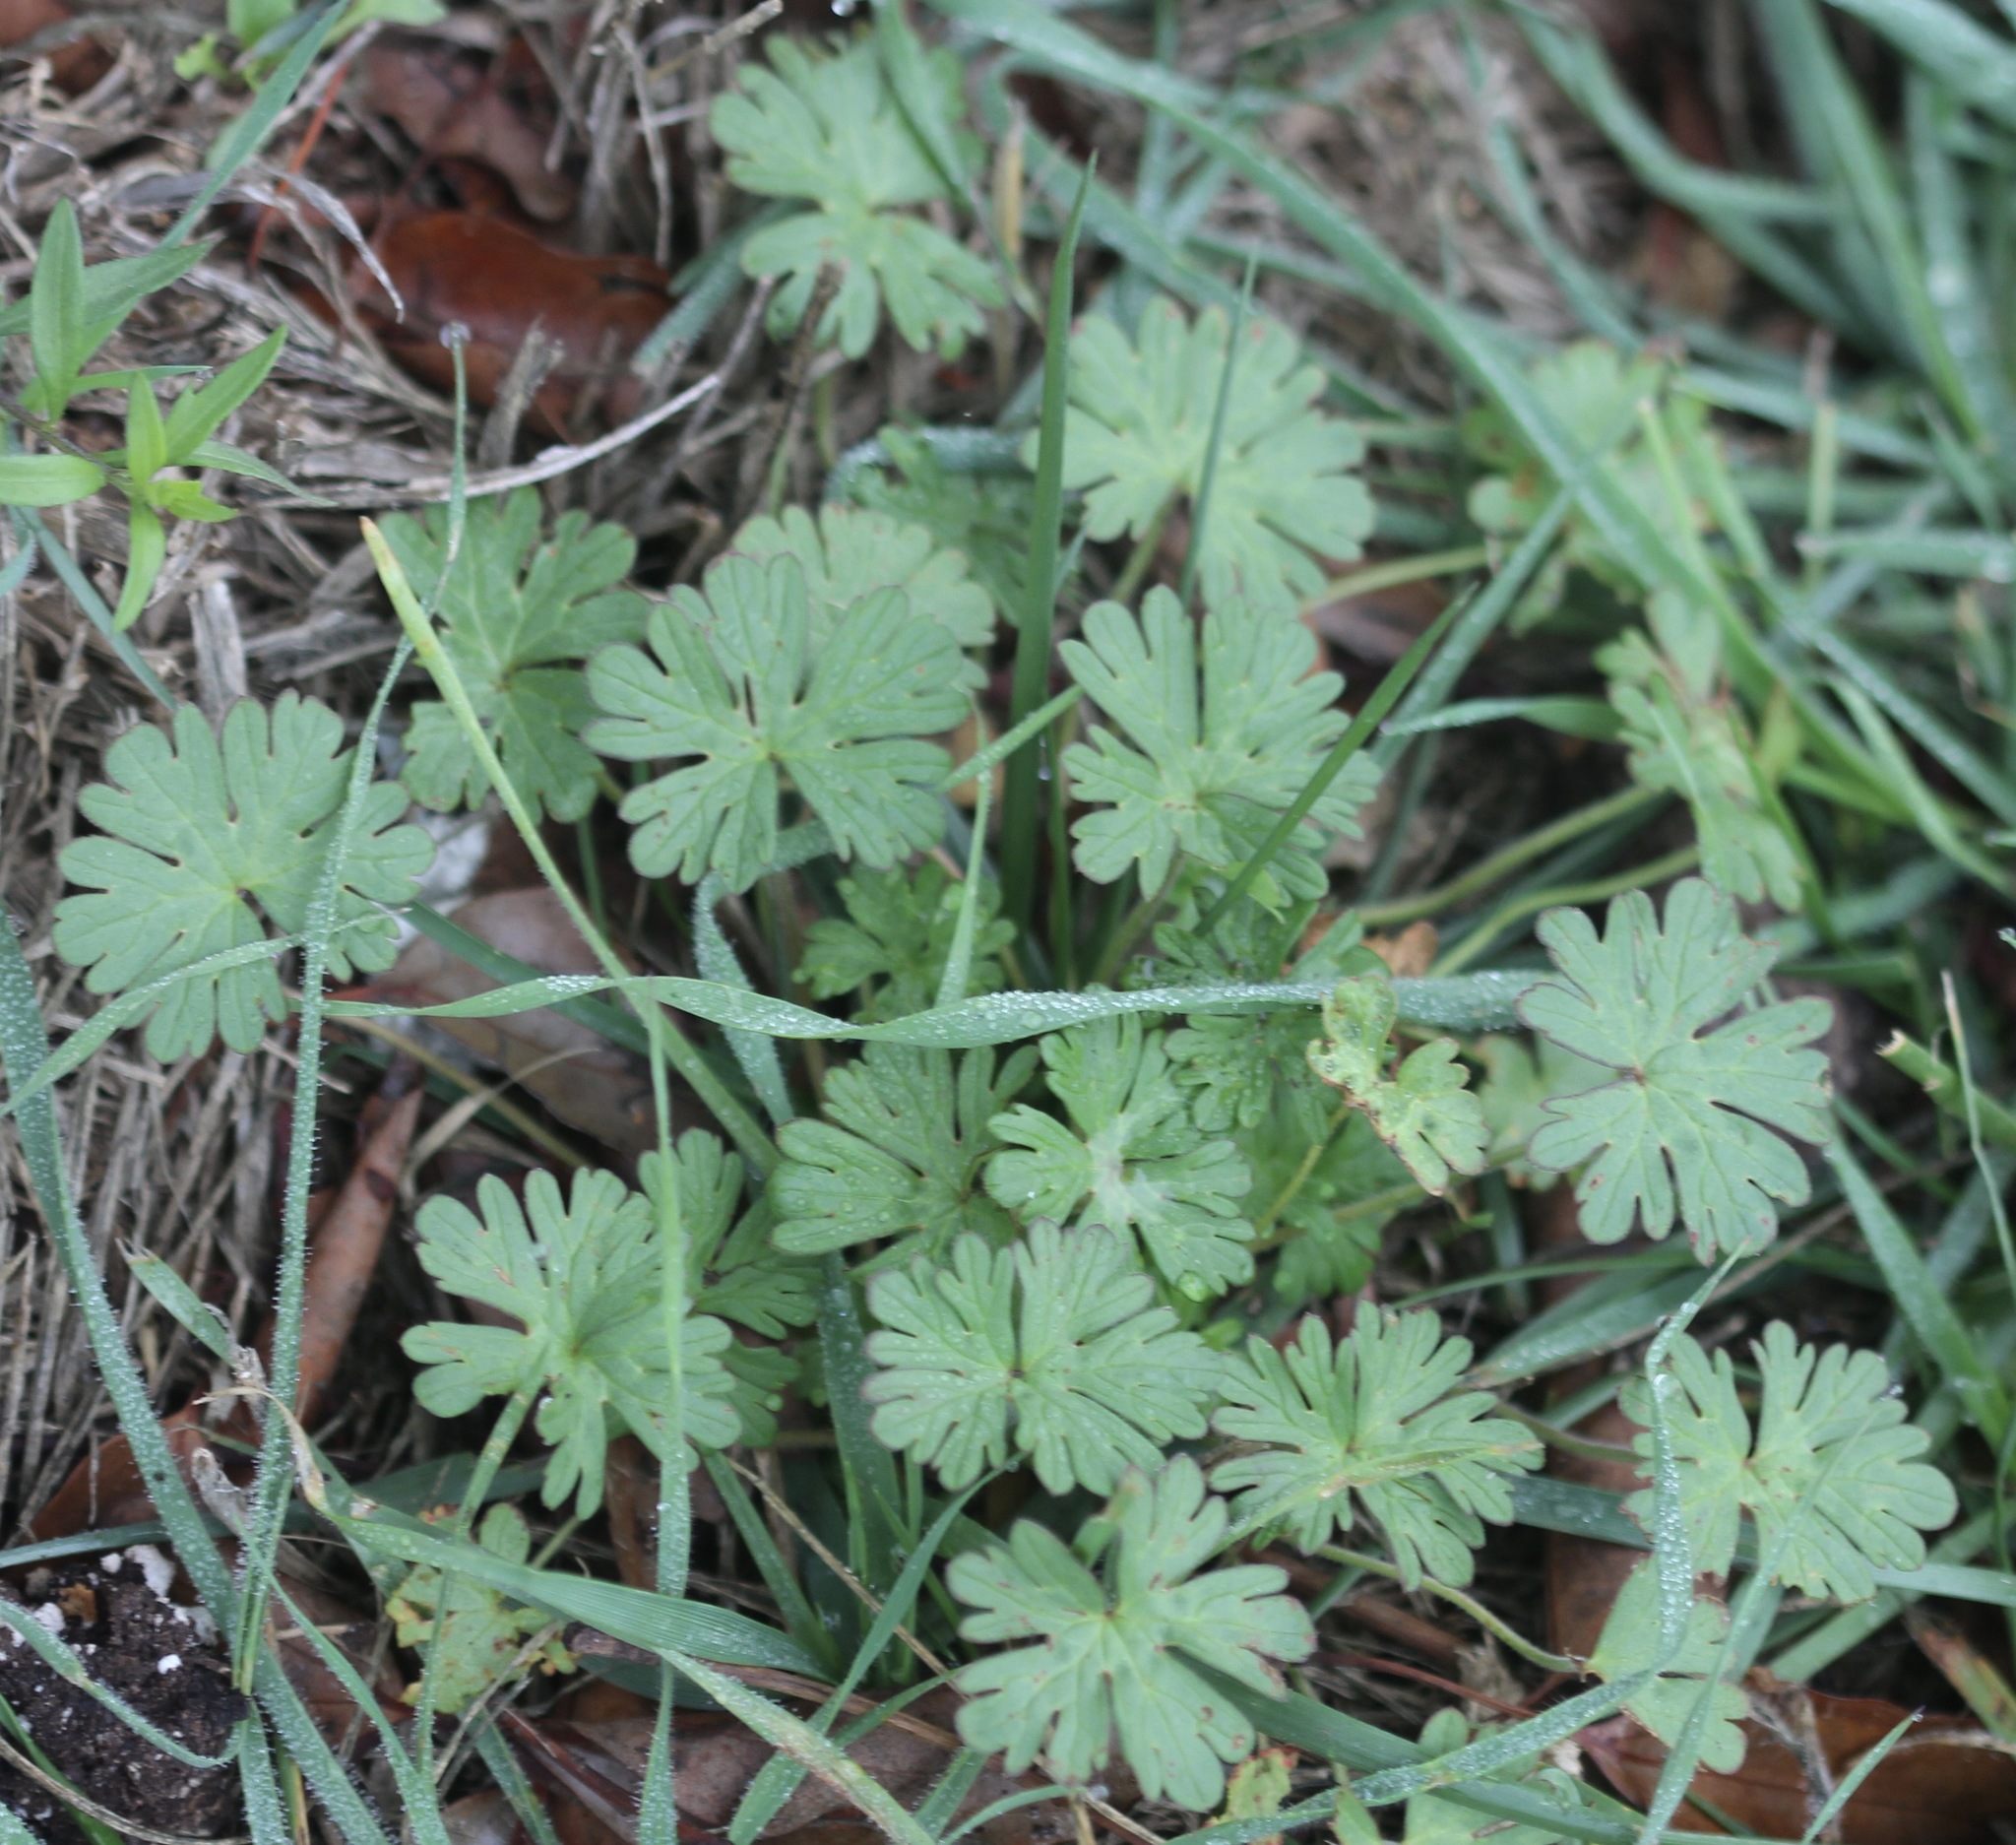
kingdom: Plantae
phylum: Tracheophyta
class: Magnoliopsida
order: Geraniales
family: Geraniaceae
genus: Geranium
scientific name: Geranium
